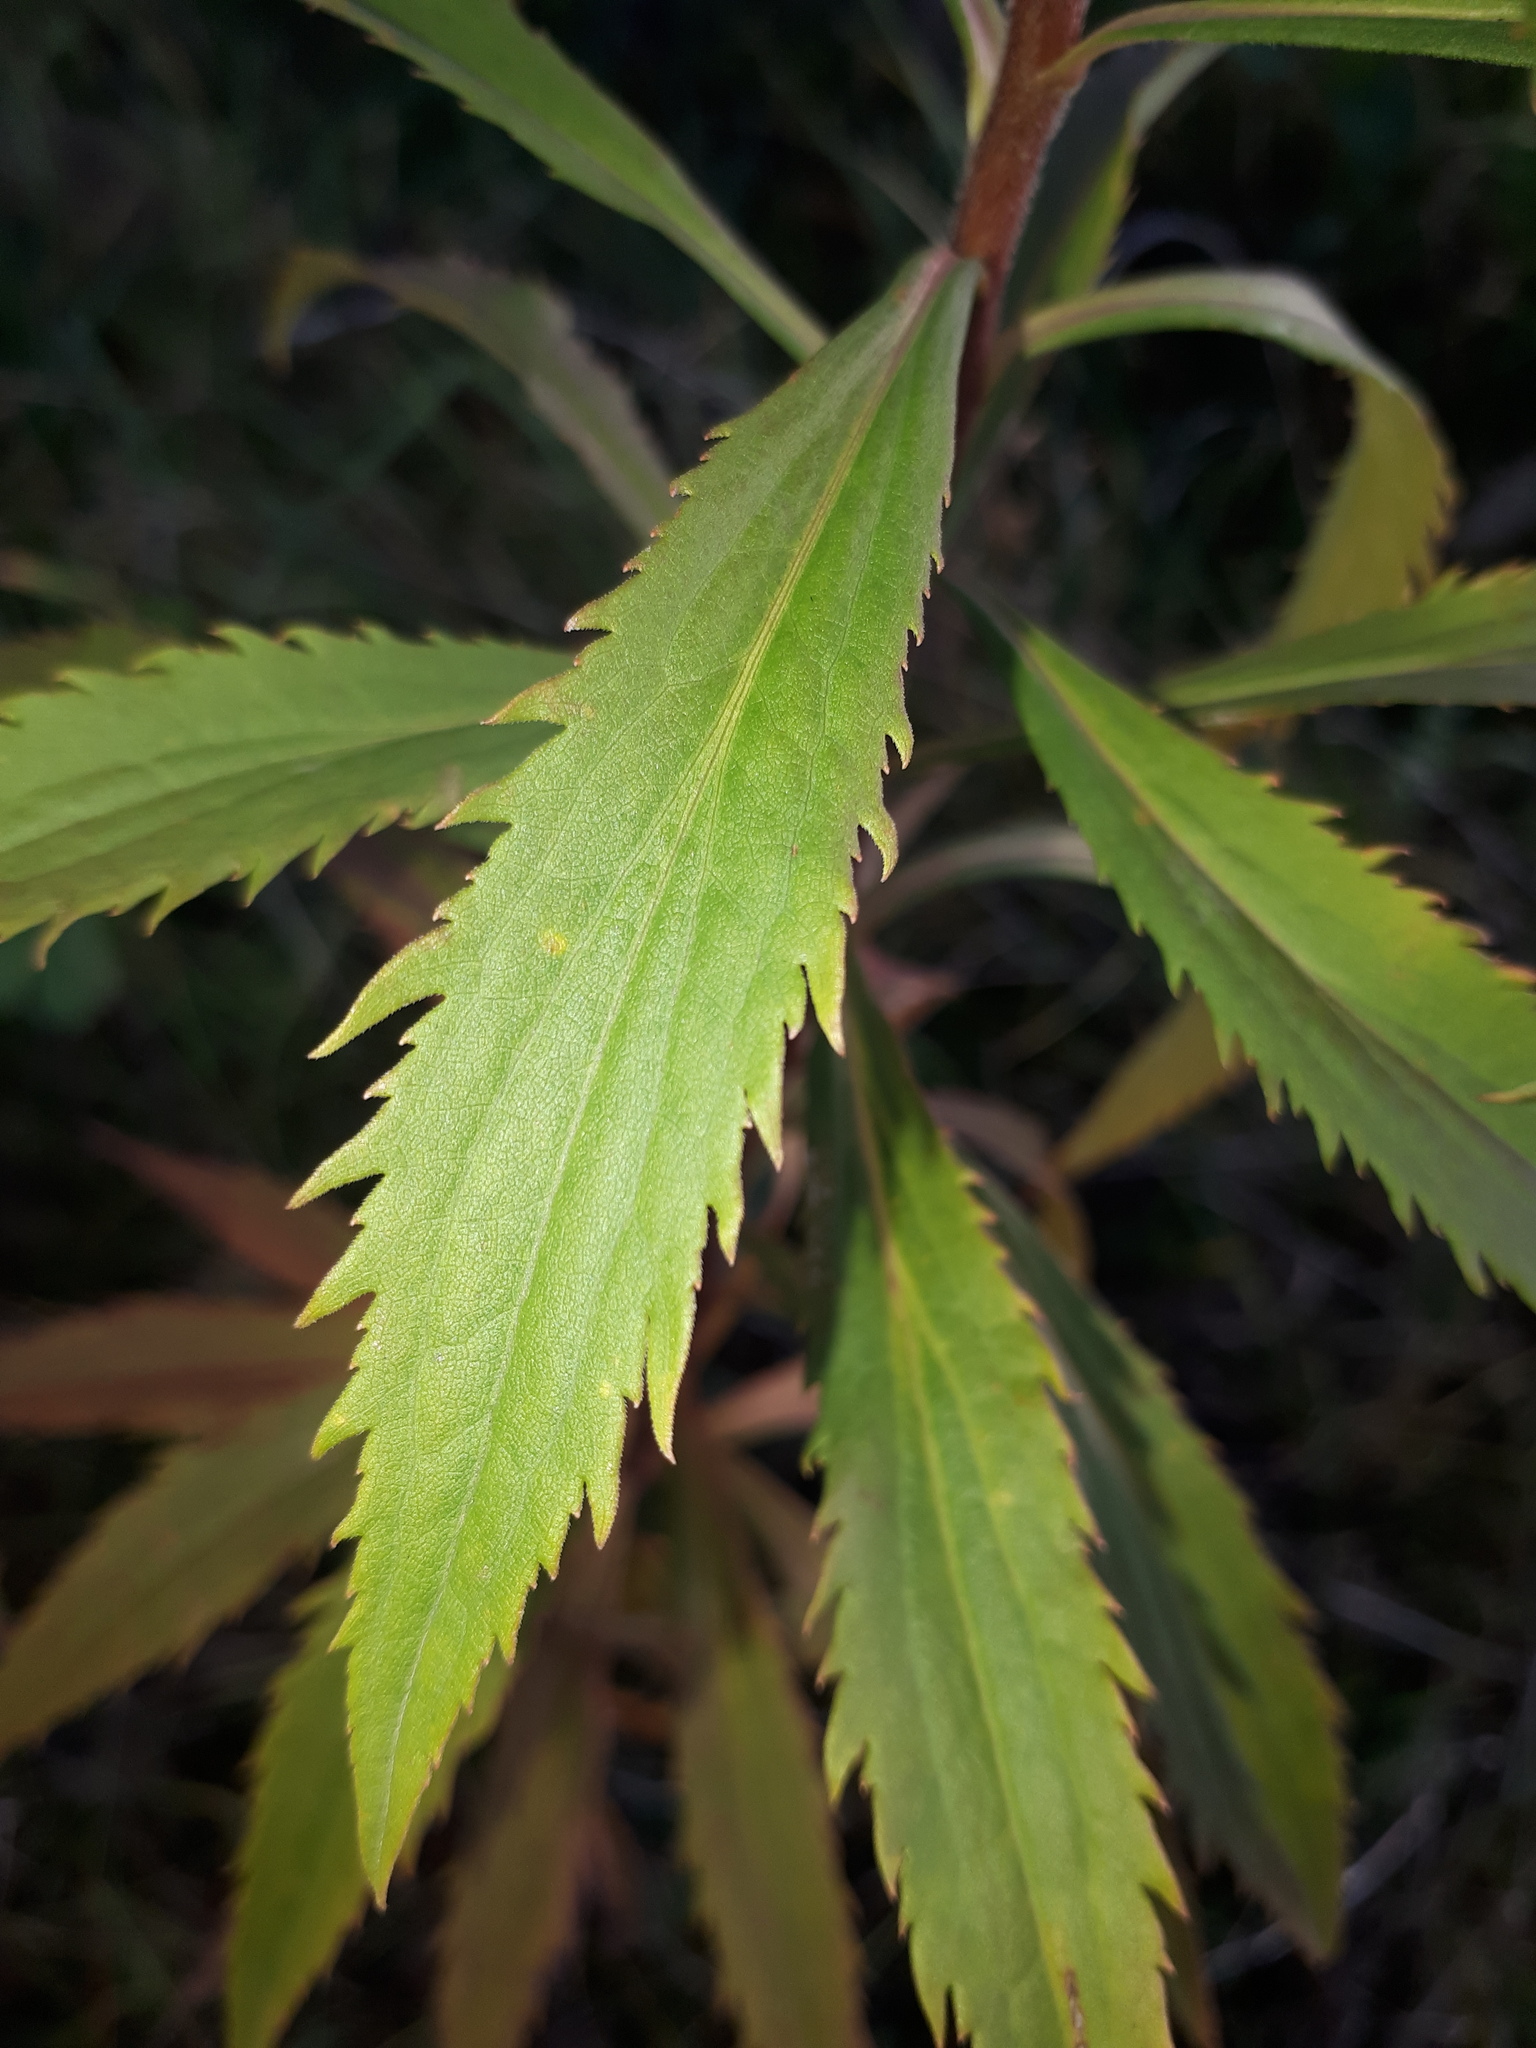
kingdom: Plantae
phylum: Tracheophyta
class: Magnoliopsida
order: Asterales
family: Asteraceae
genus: Solidago
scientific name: Solidago canadensis
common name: Canada goldenrod
